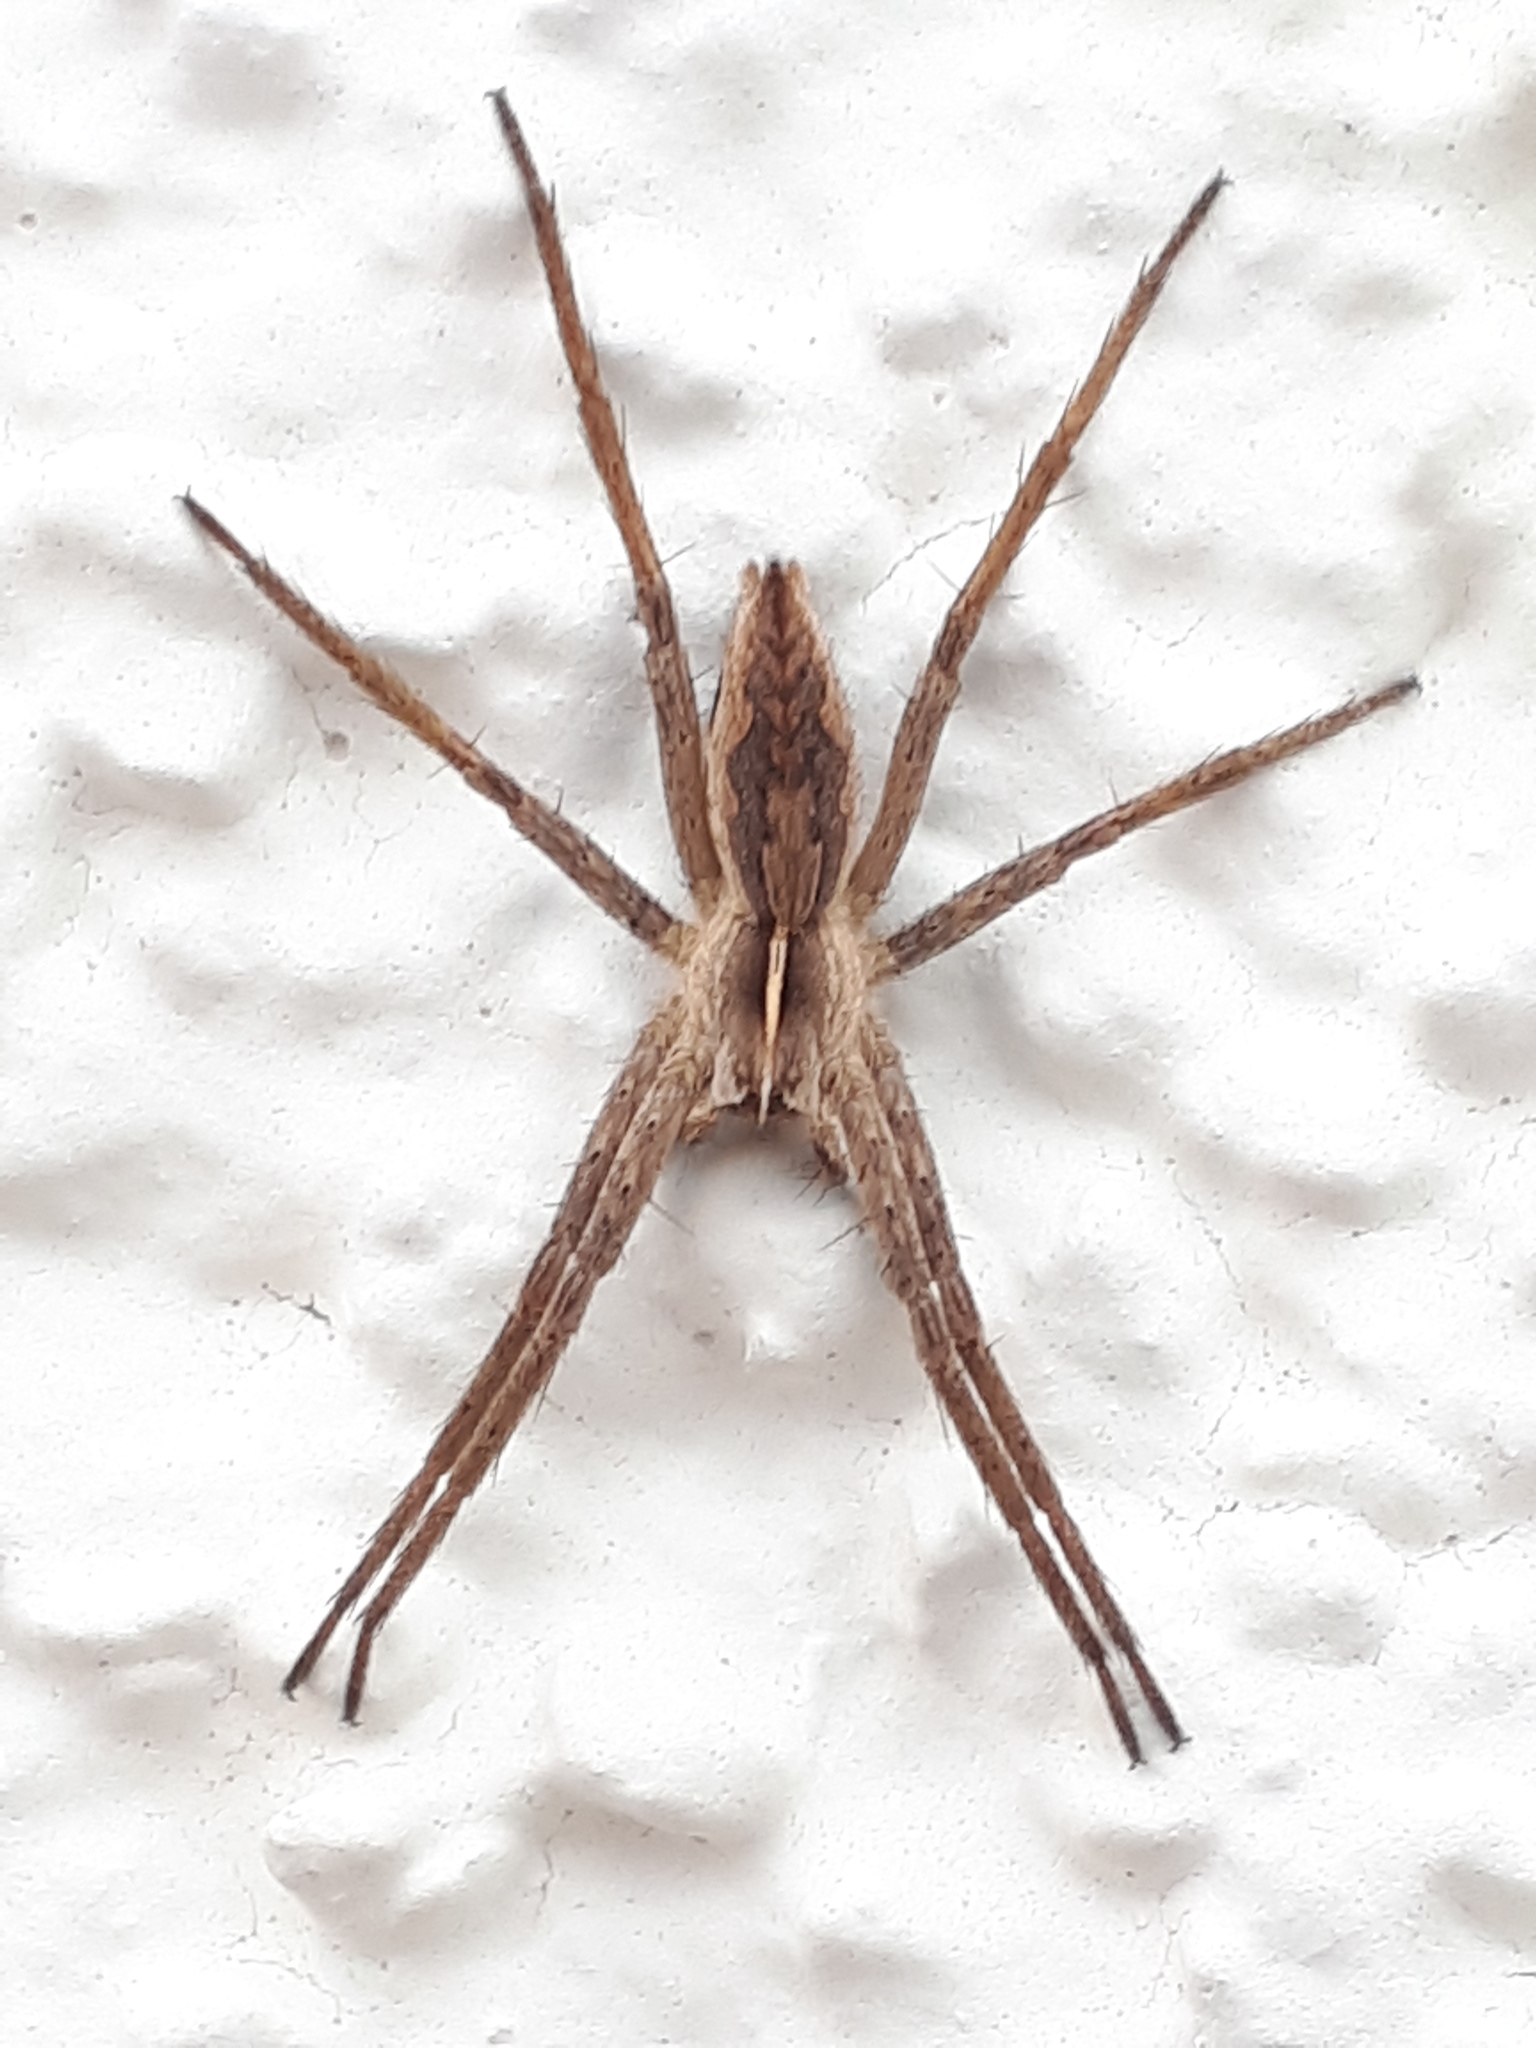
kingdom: Animalia
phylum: Arthropoda
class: Arachnida
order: Araneae
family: Pisauridae
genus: Pisaura
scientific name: Pisaura mirabilis
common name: Tent spider
